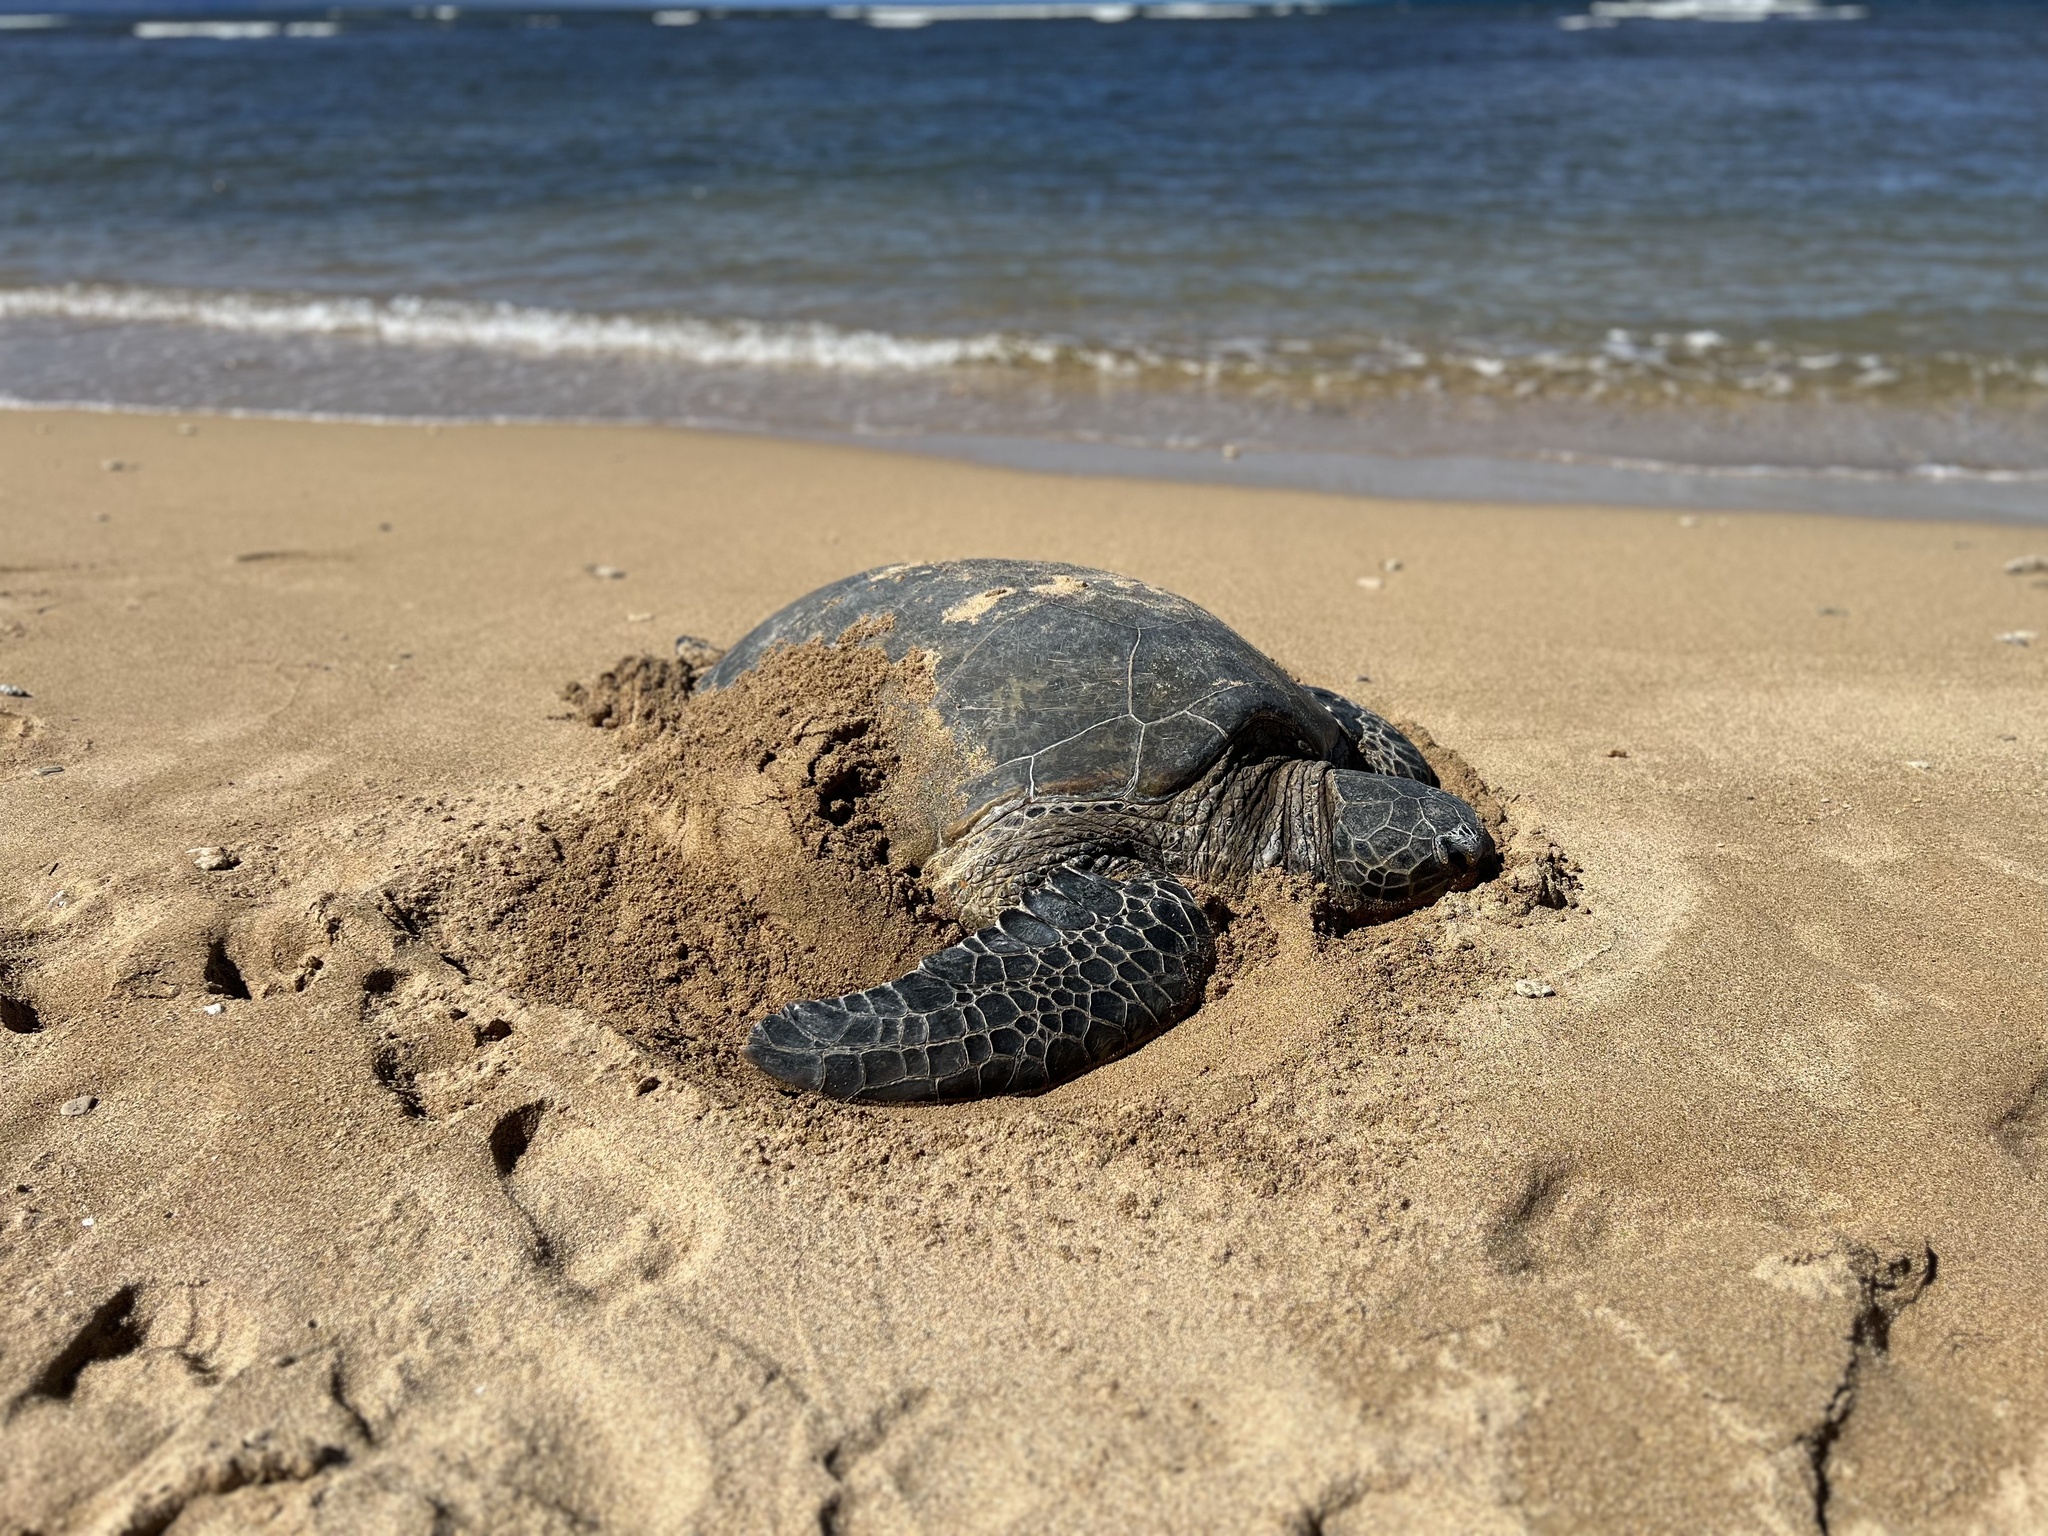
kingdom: Animalia
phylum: Chordata
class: Testudines
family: Cheloniidae
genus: Chelonia
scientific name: Chelonia mydas
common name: Green turtle
